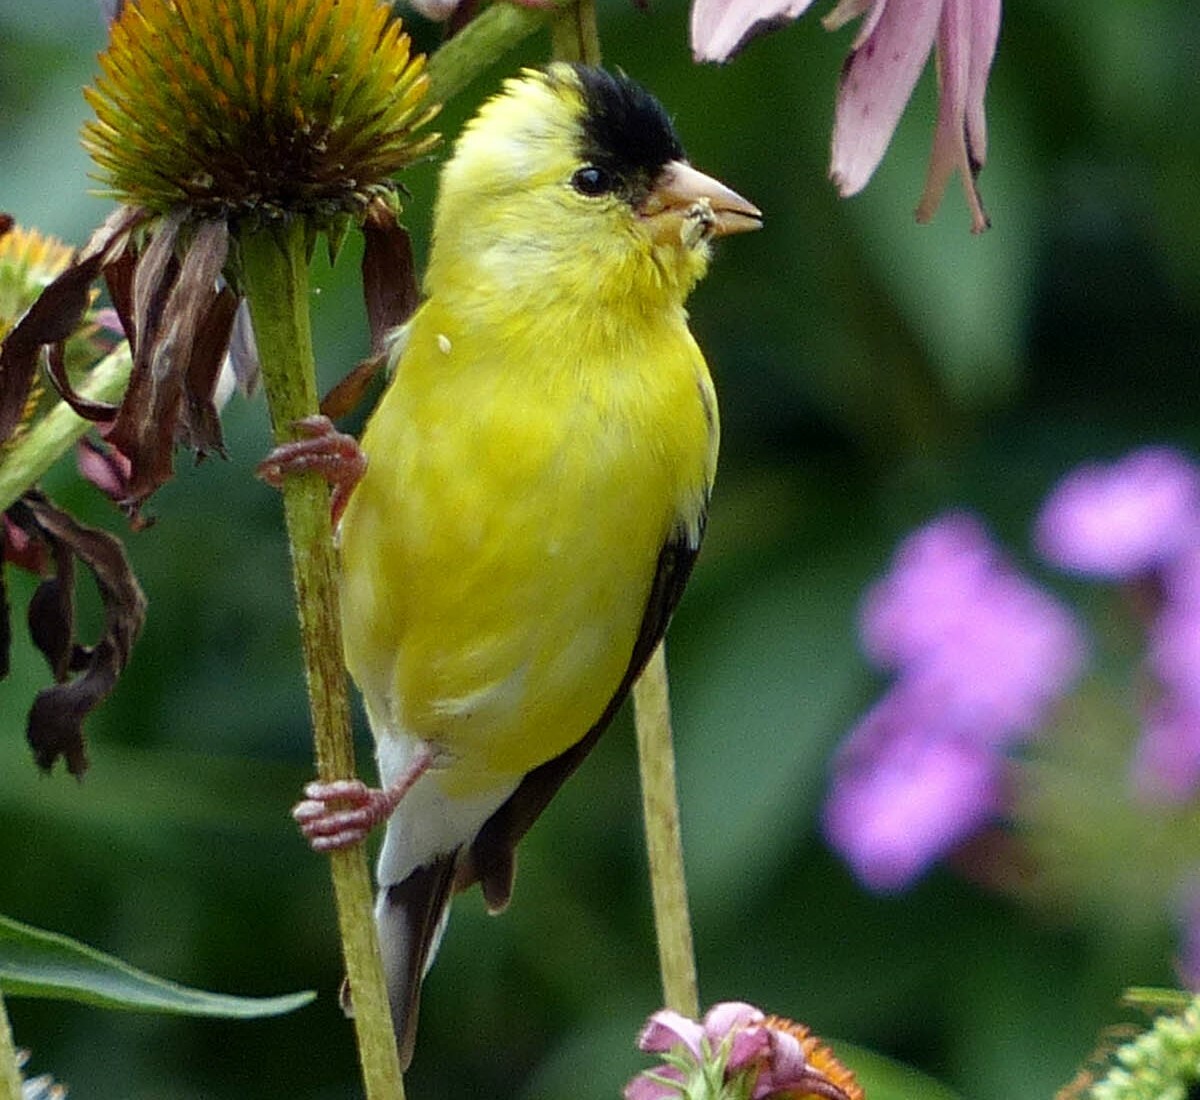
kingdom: Animalia
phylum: Chordata
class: Aves
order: Passeriformes
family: Fringillidae
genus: Spinus
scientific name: Spinus tristis
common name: American goldfinch
